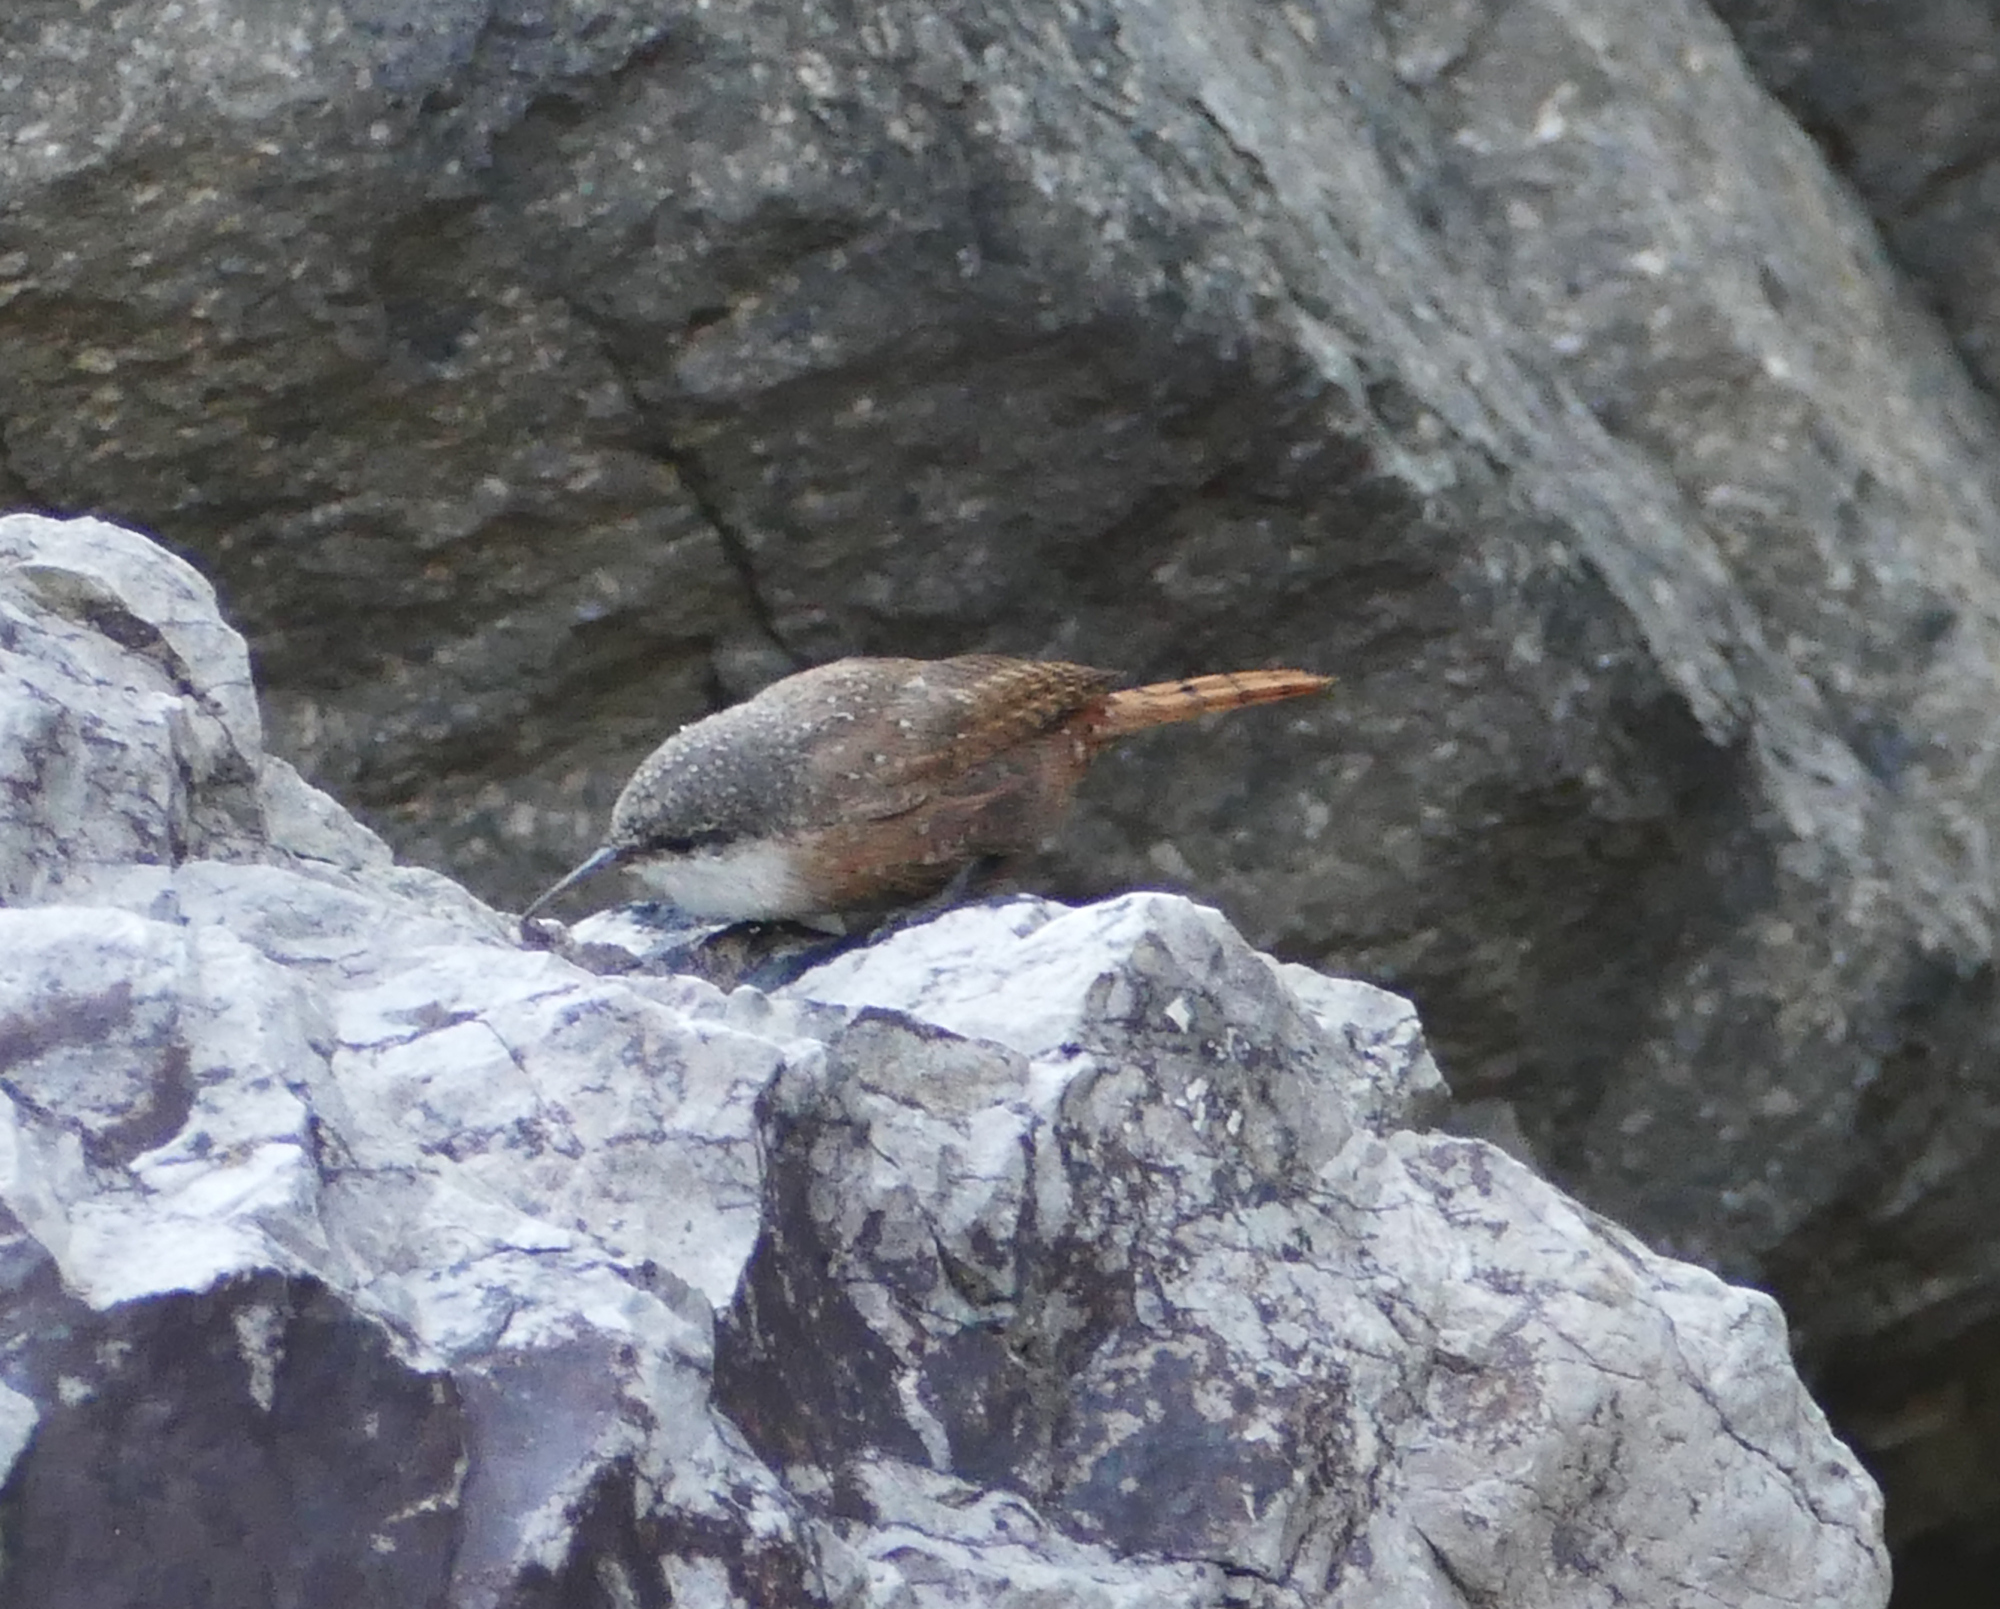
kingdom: Animalia
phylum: Chordata
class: Aves
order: Passeriformes
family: Troglodytidae
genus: Catherpes
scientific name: Catherpes mexicanus
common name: Canyon wren
